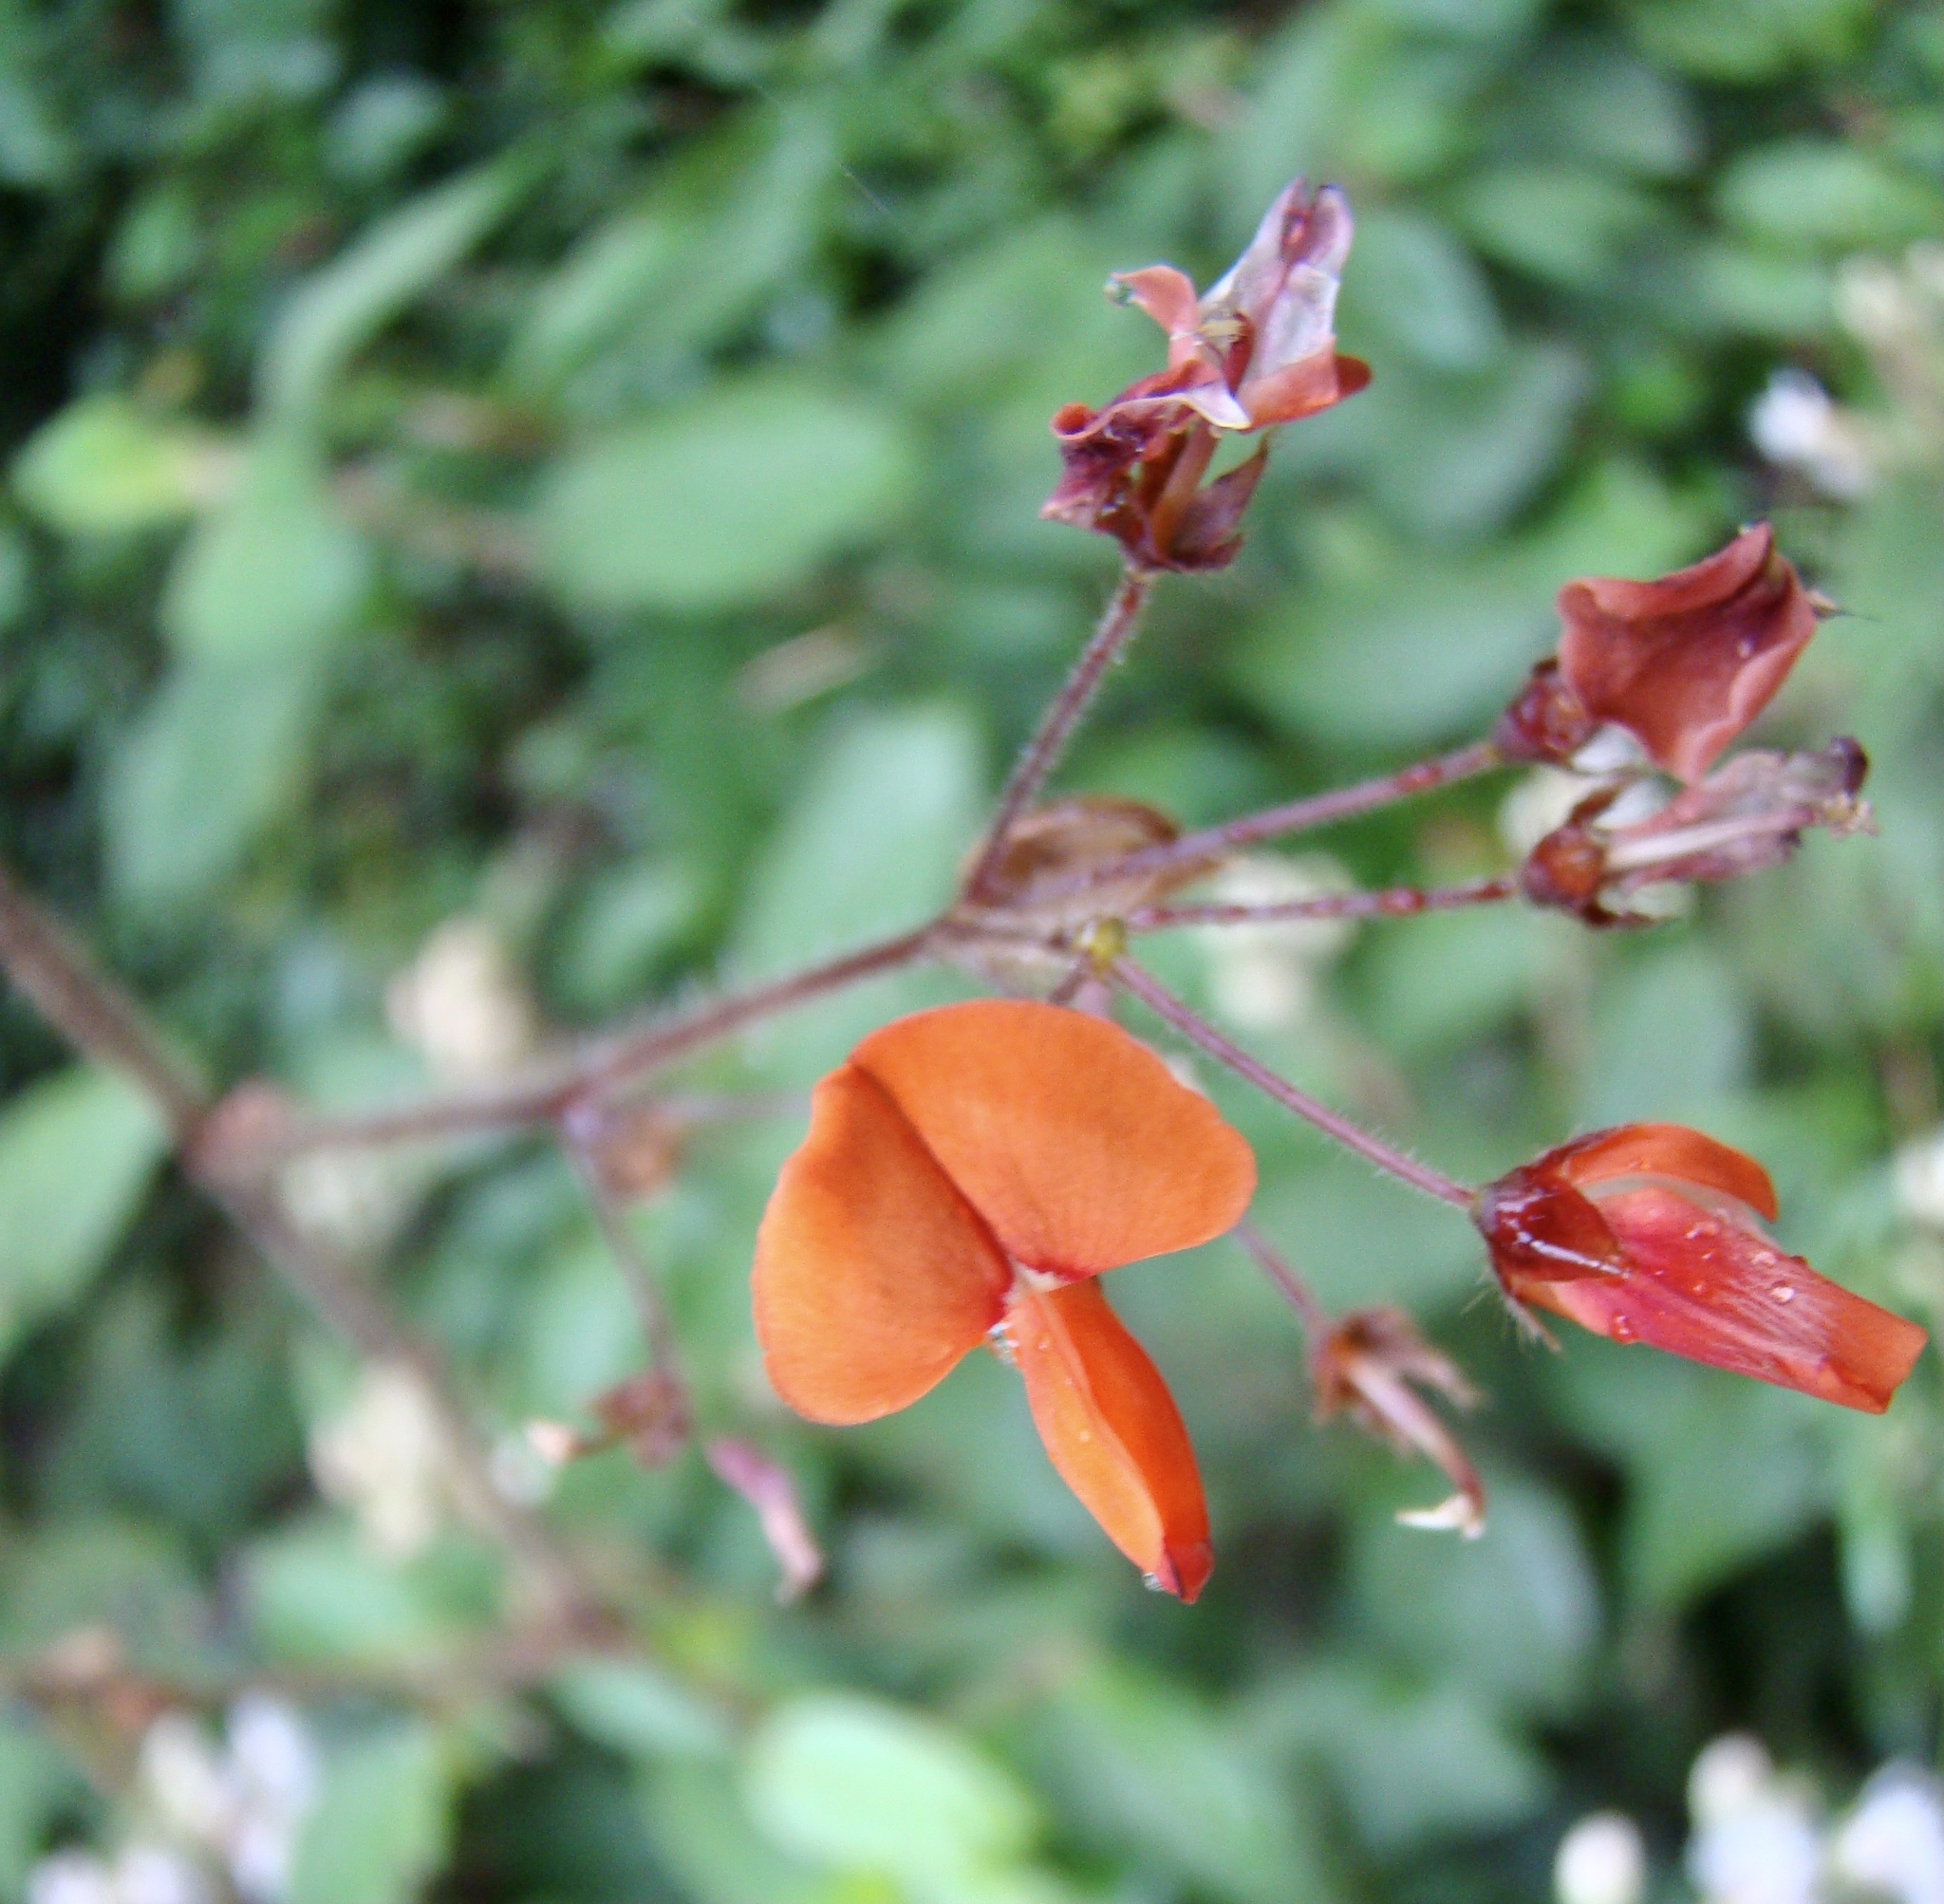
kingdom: Plantae
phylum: Tracheophyta
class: Magnoliopsida
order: Fabales
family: Fabaceae
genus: Hylodesmum
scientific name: Hylodesmum repandum
